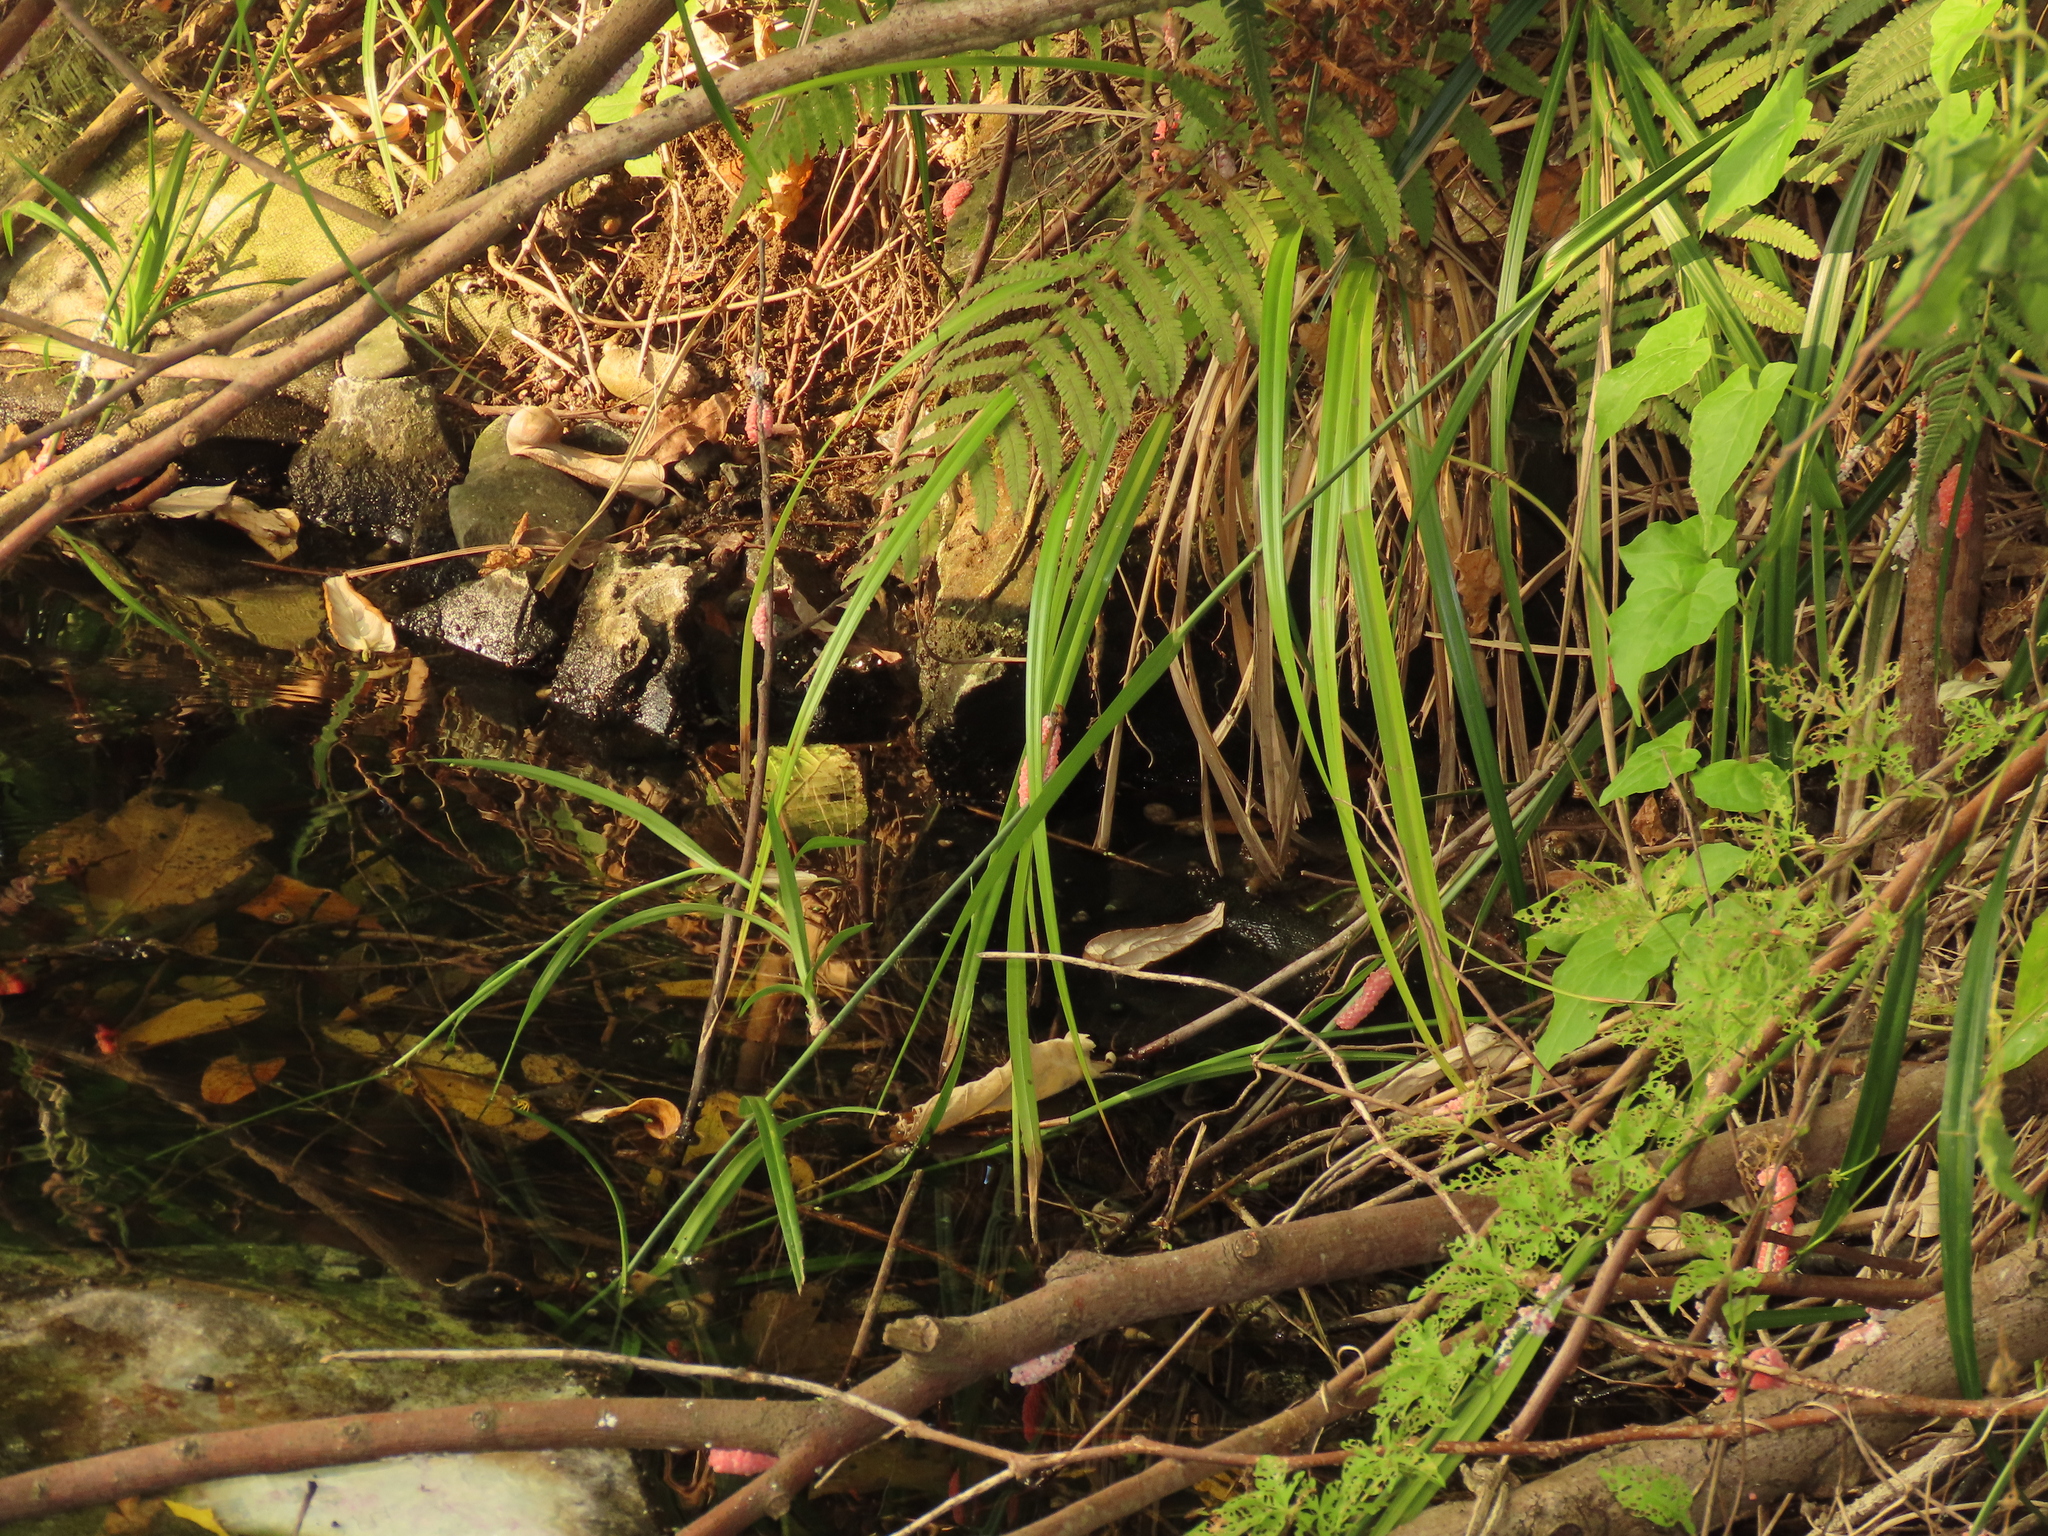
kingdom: Plantae
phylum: Tracheophyta
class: Liliopsida
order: Poales
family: Cyperaceae
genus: Scirpus
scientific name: Scirpus ternatanus
